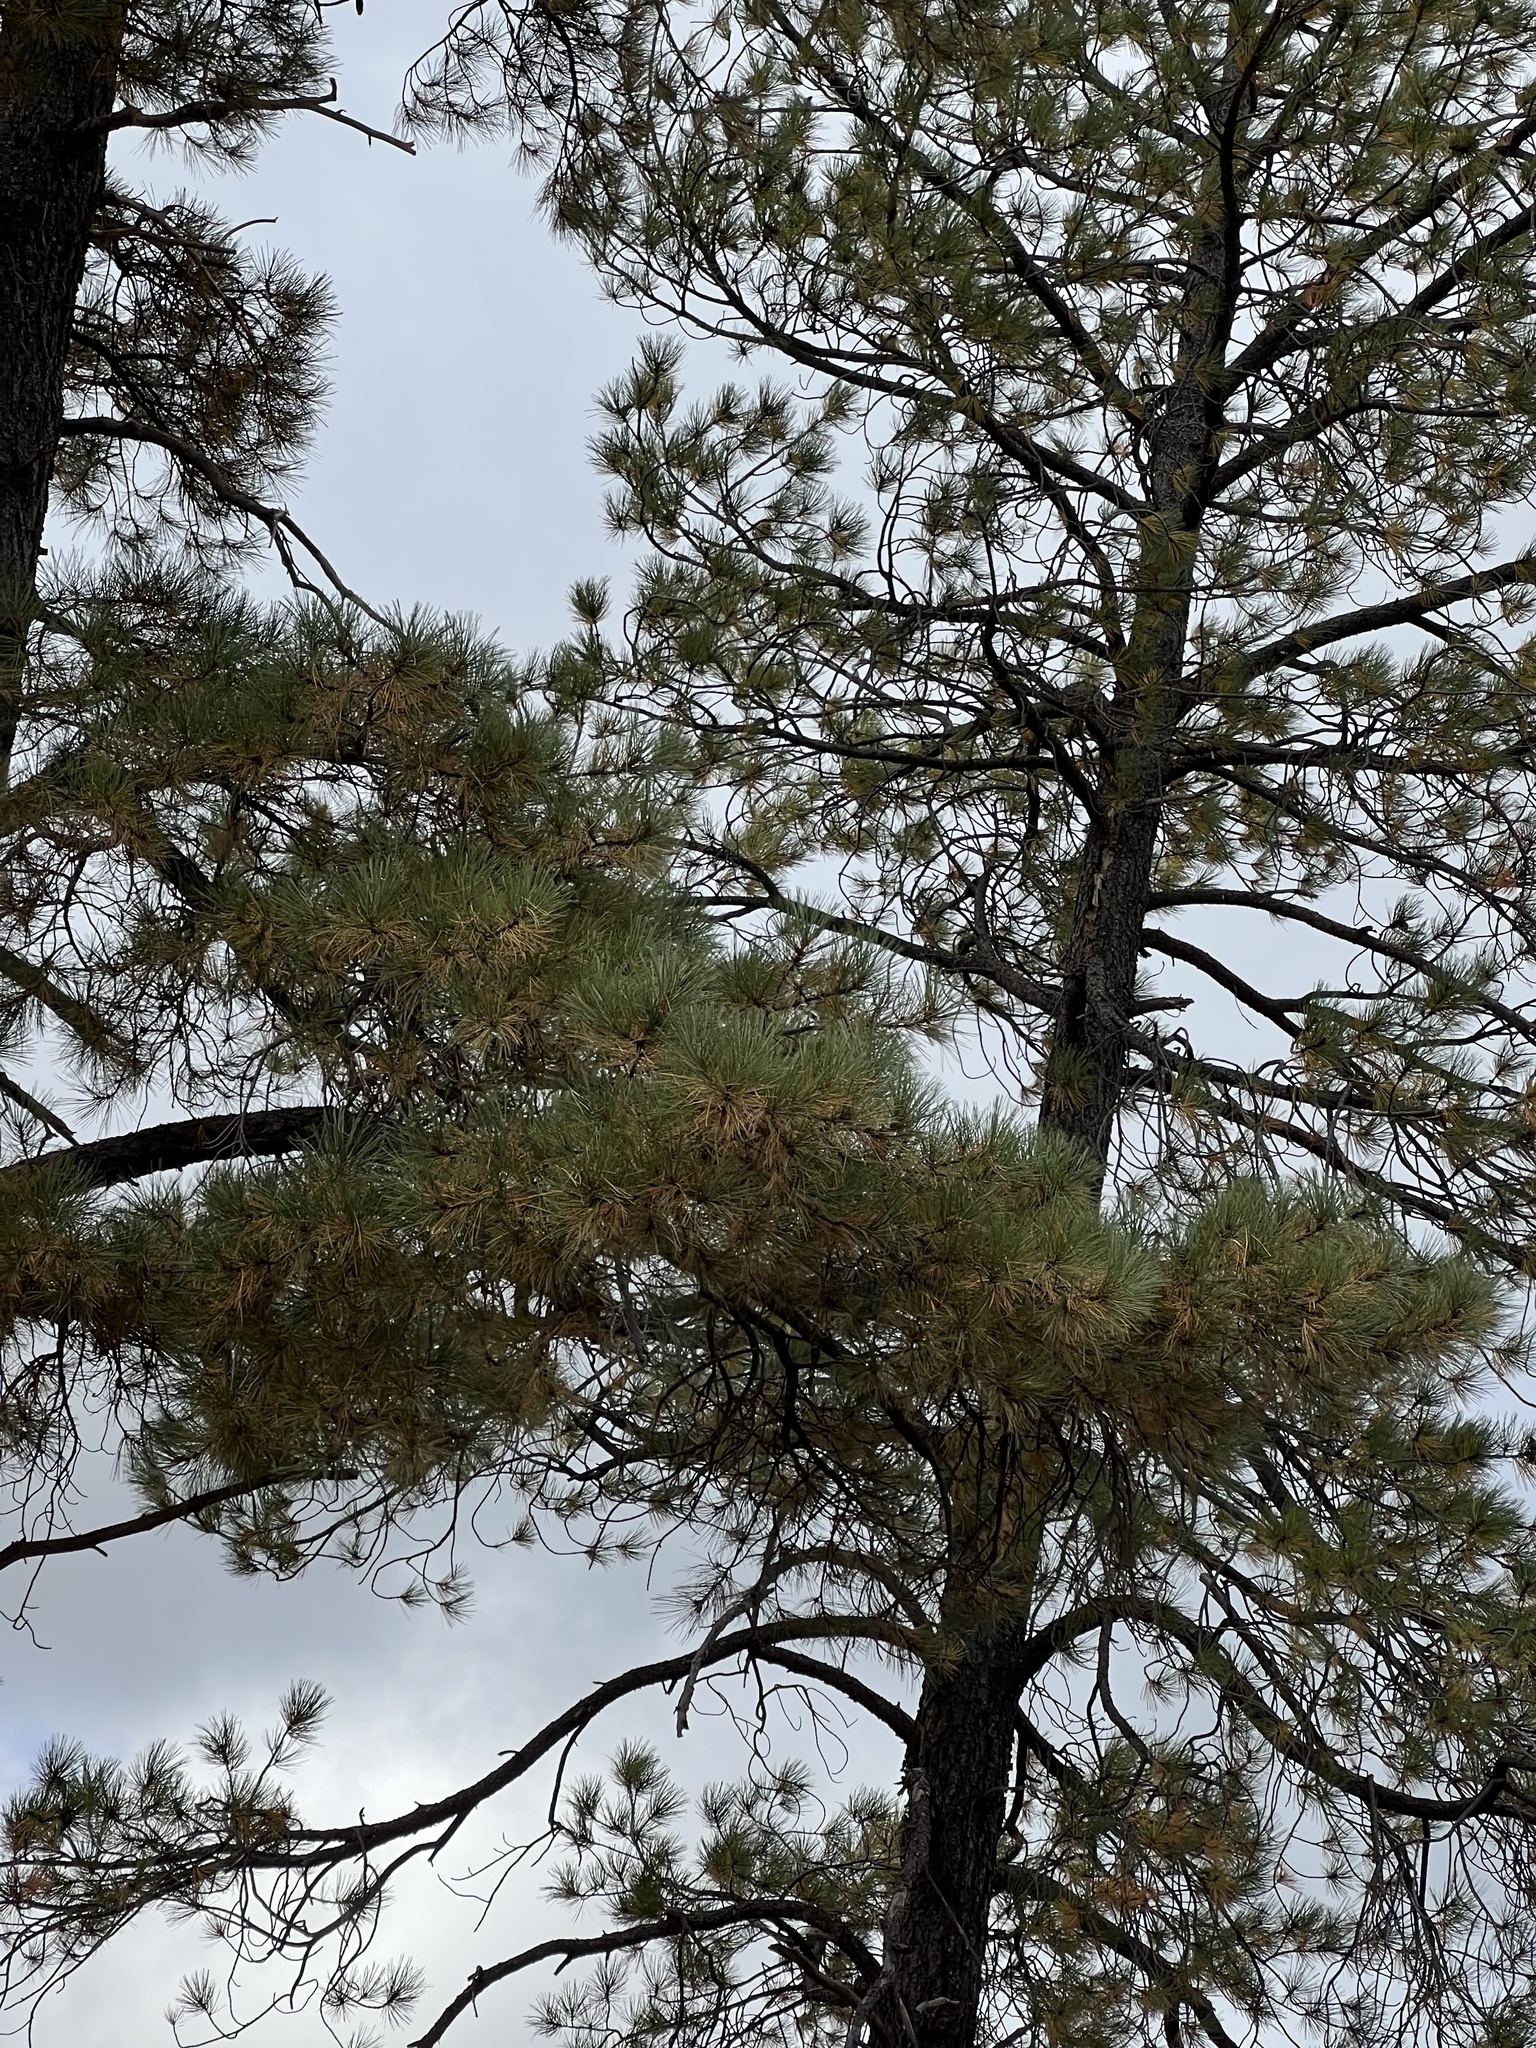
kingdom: Plantae
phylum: Tracheophyta
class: Pinopsida
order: Pinales
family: Pinaceae
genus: Pinus
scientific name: Pinus ponderosa
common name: Western yellow-pine
